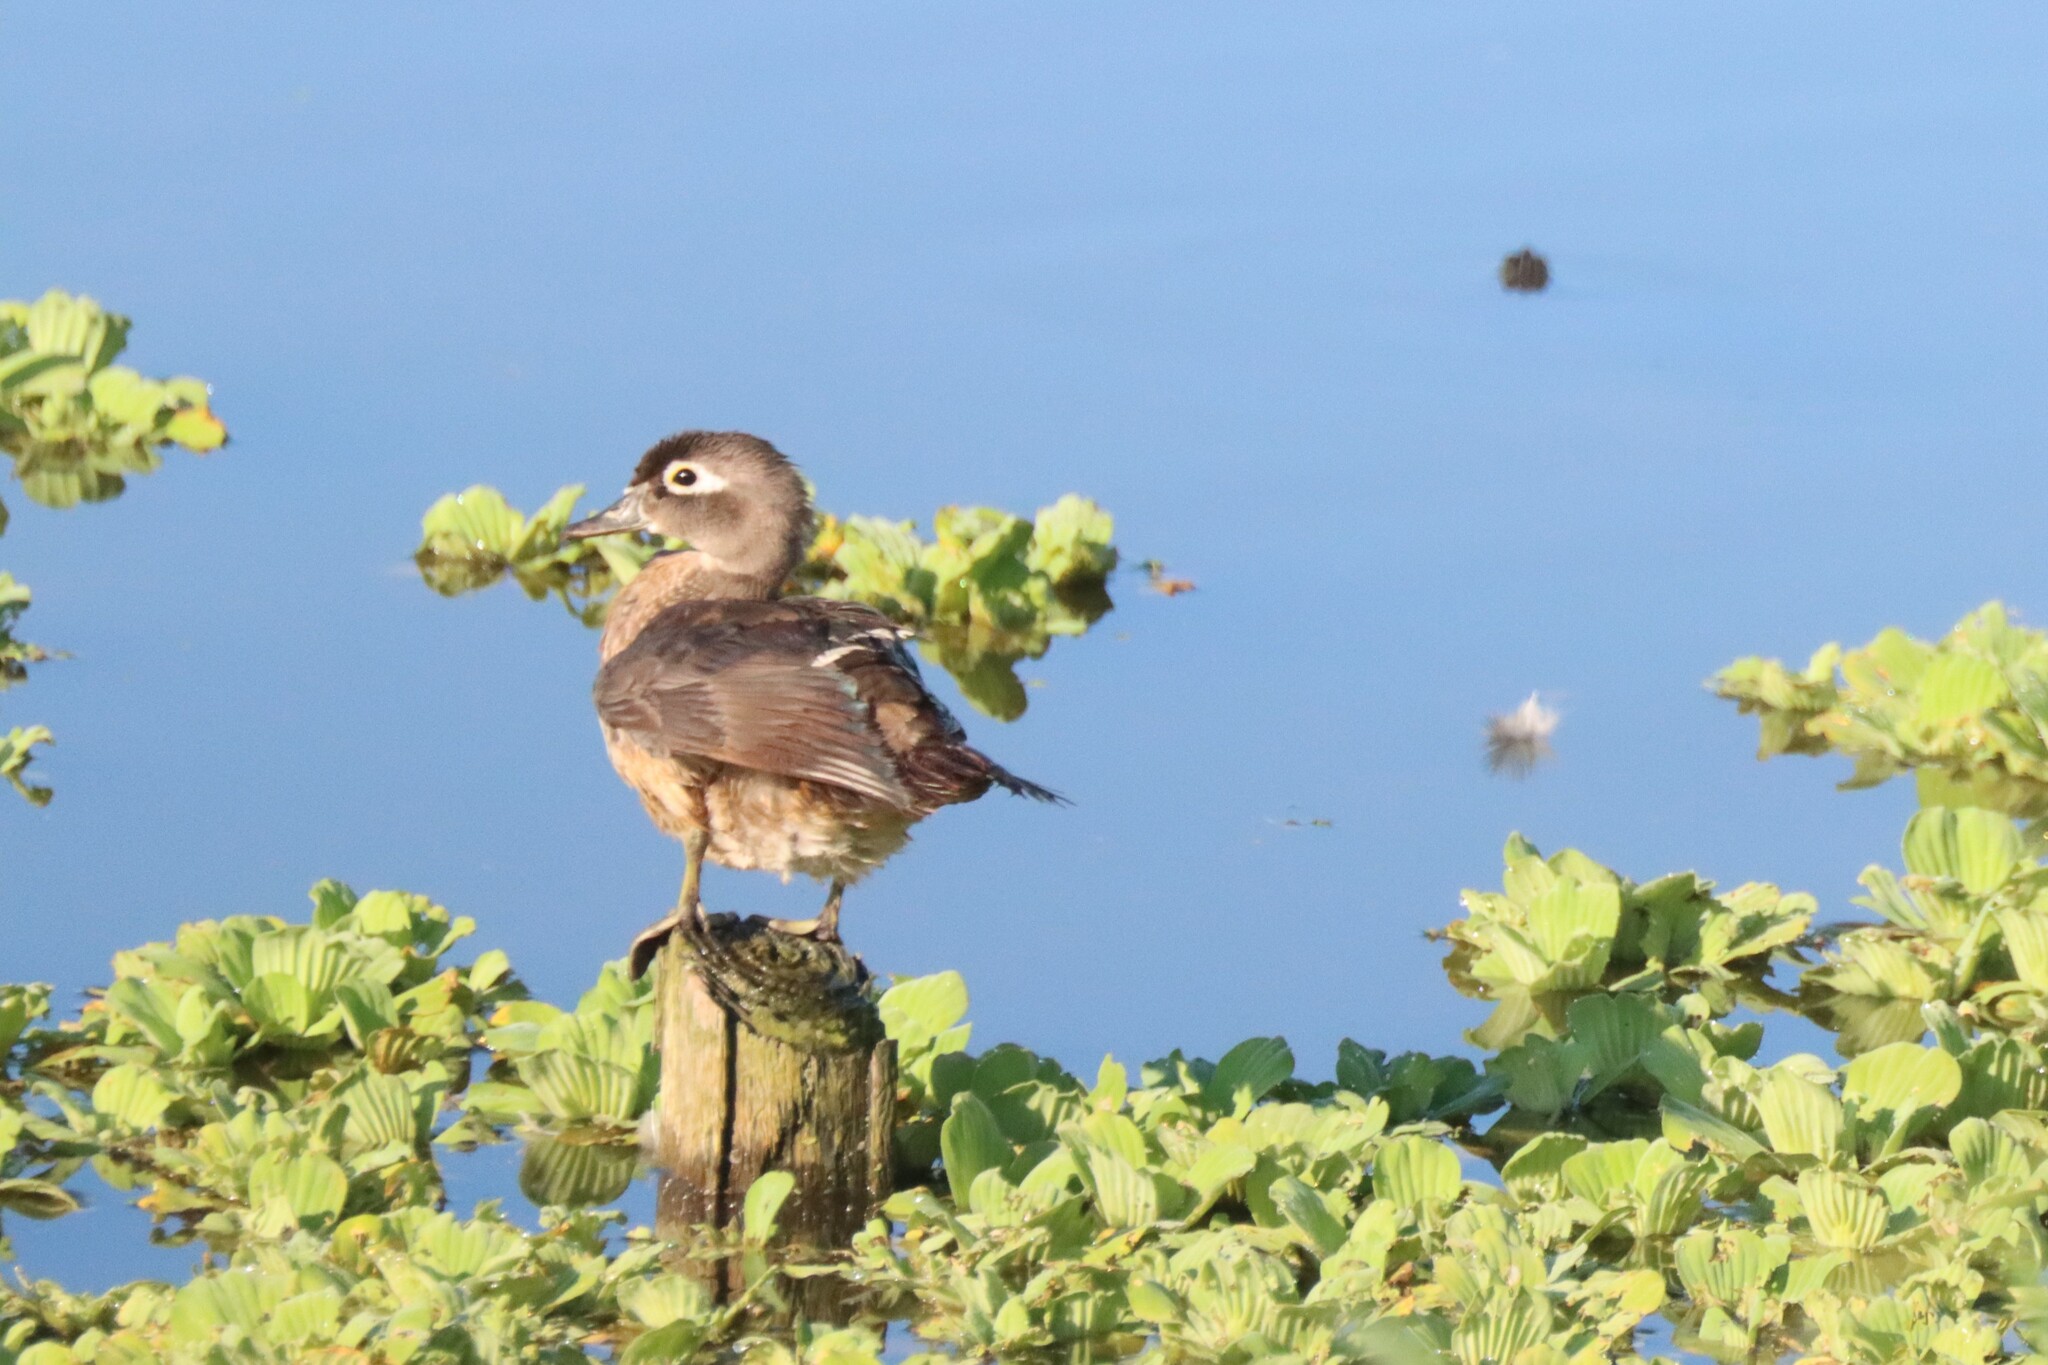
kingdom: Animalia
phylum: Chordata
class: Aves
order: Anseriformes
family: Anatidae
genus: Aix
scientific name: Aix sponsa
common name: Wood duck
